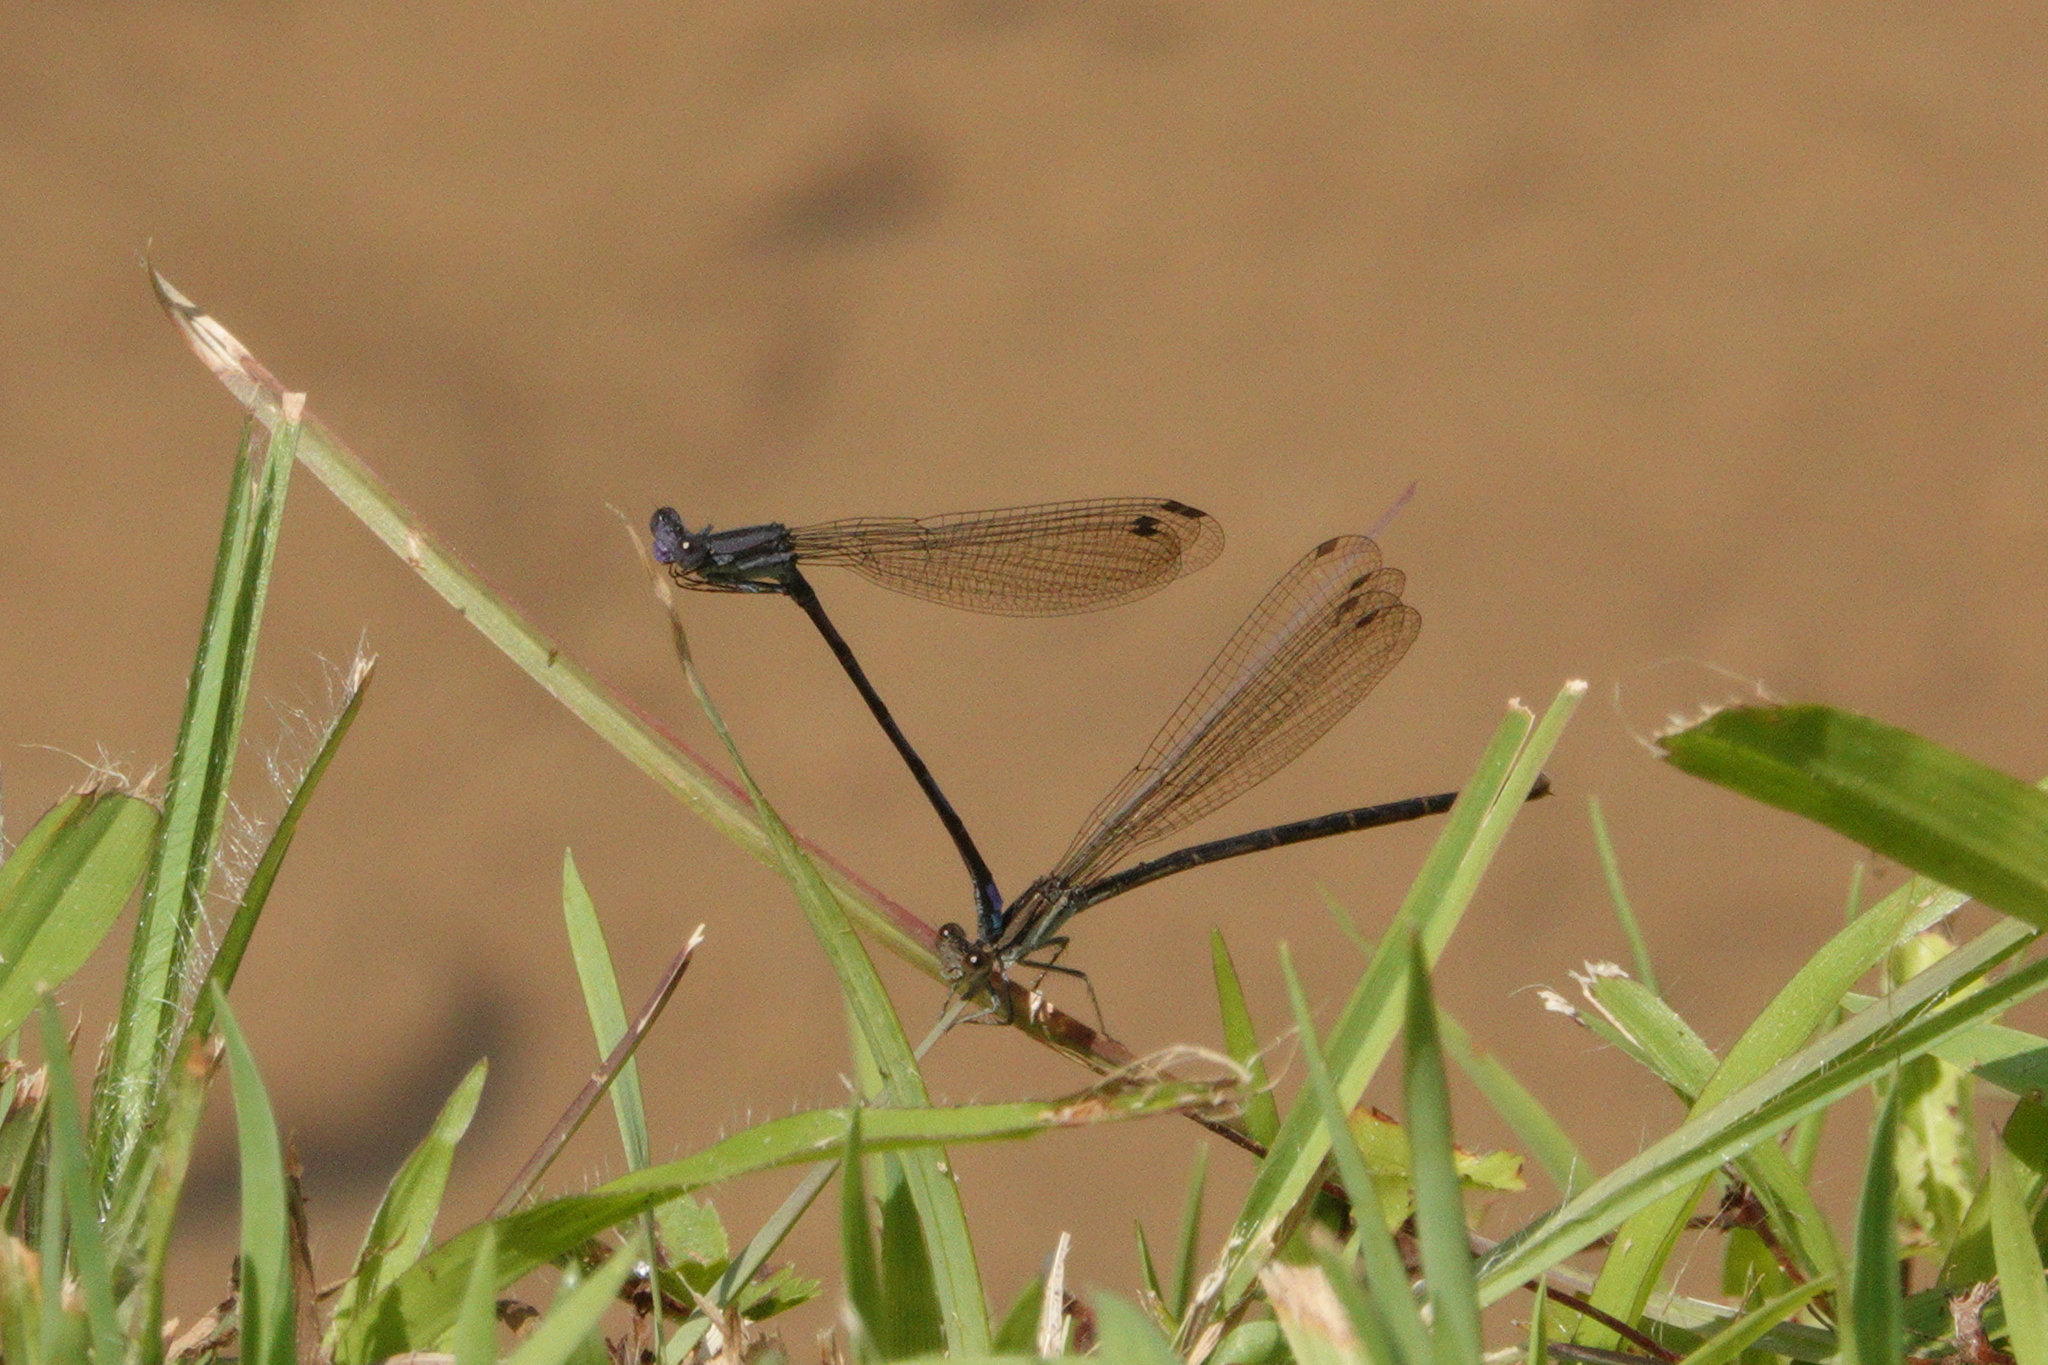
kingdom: Animalia
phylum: Arthropoda
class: Insecta
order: Odonata
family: Coenagrionidae
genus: Argia
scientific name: Argia fumipennis
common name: Variable dancer
